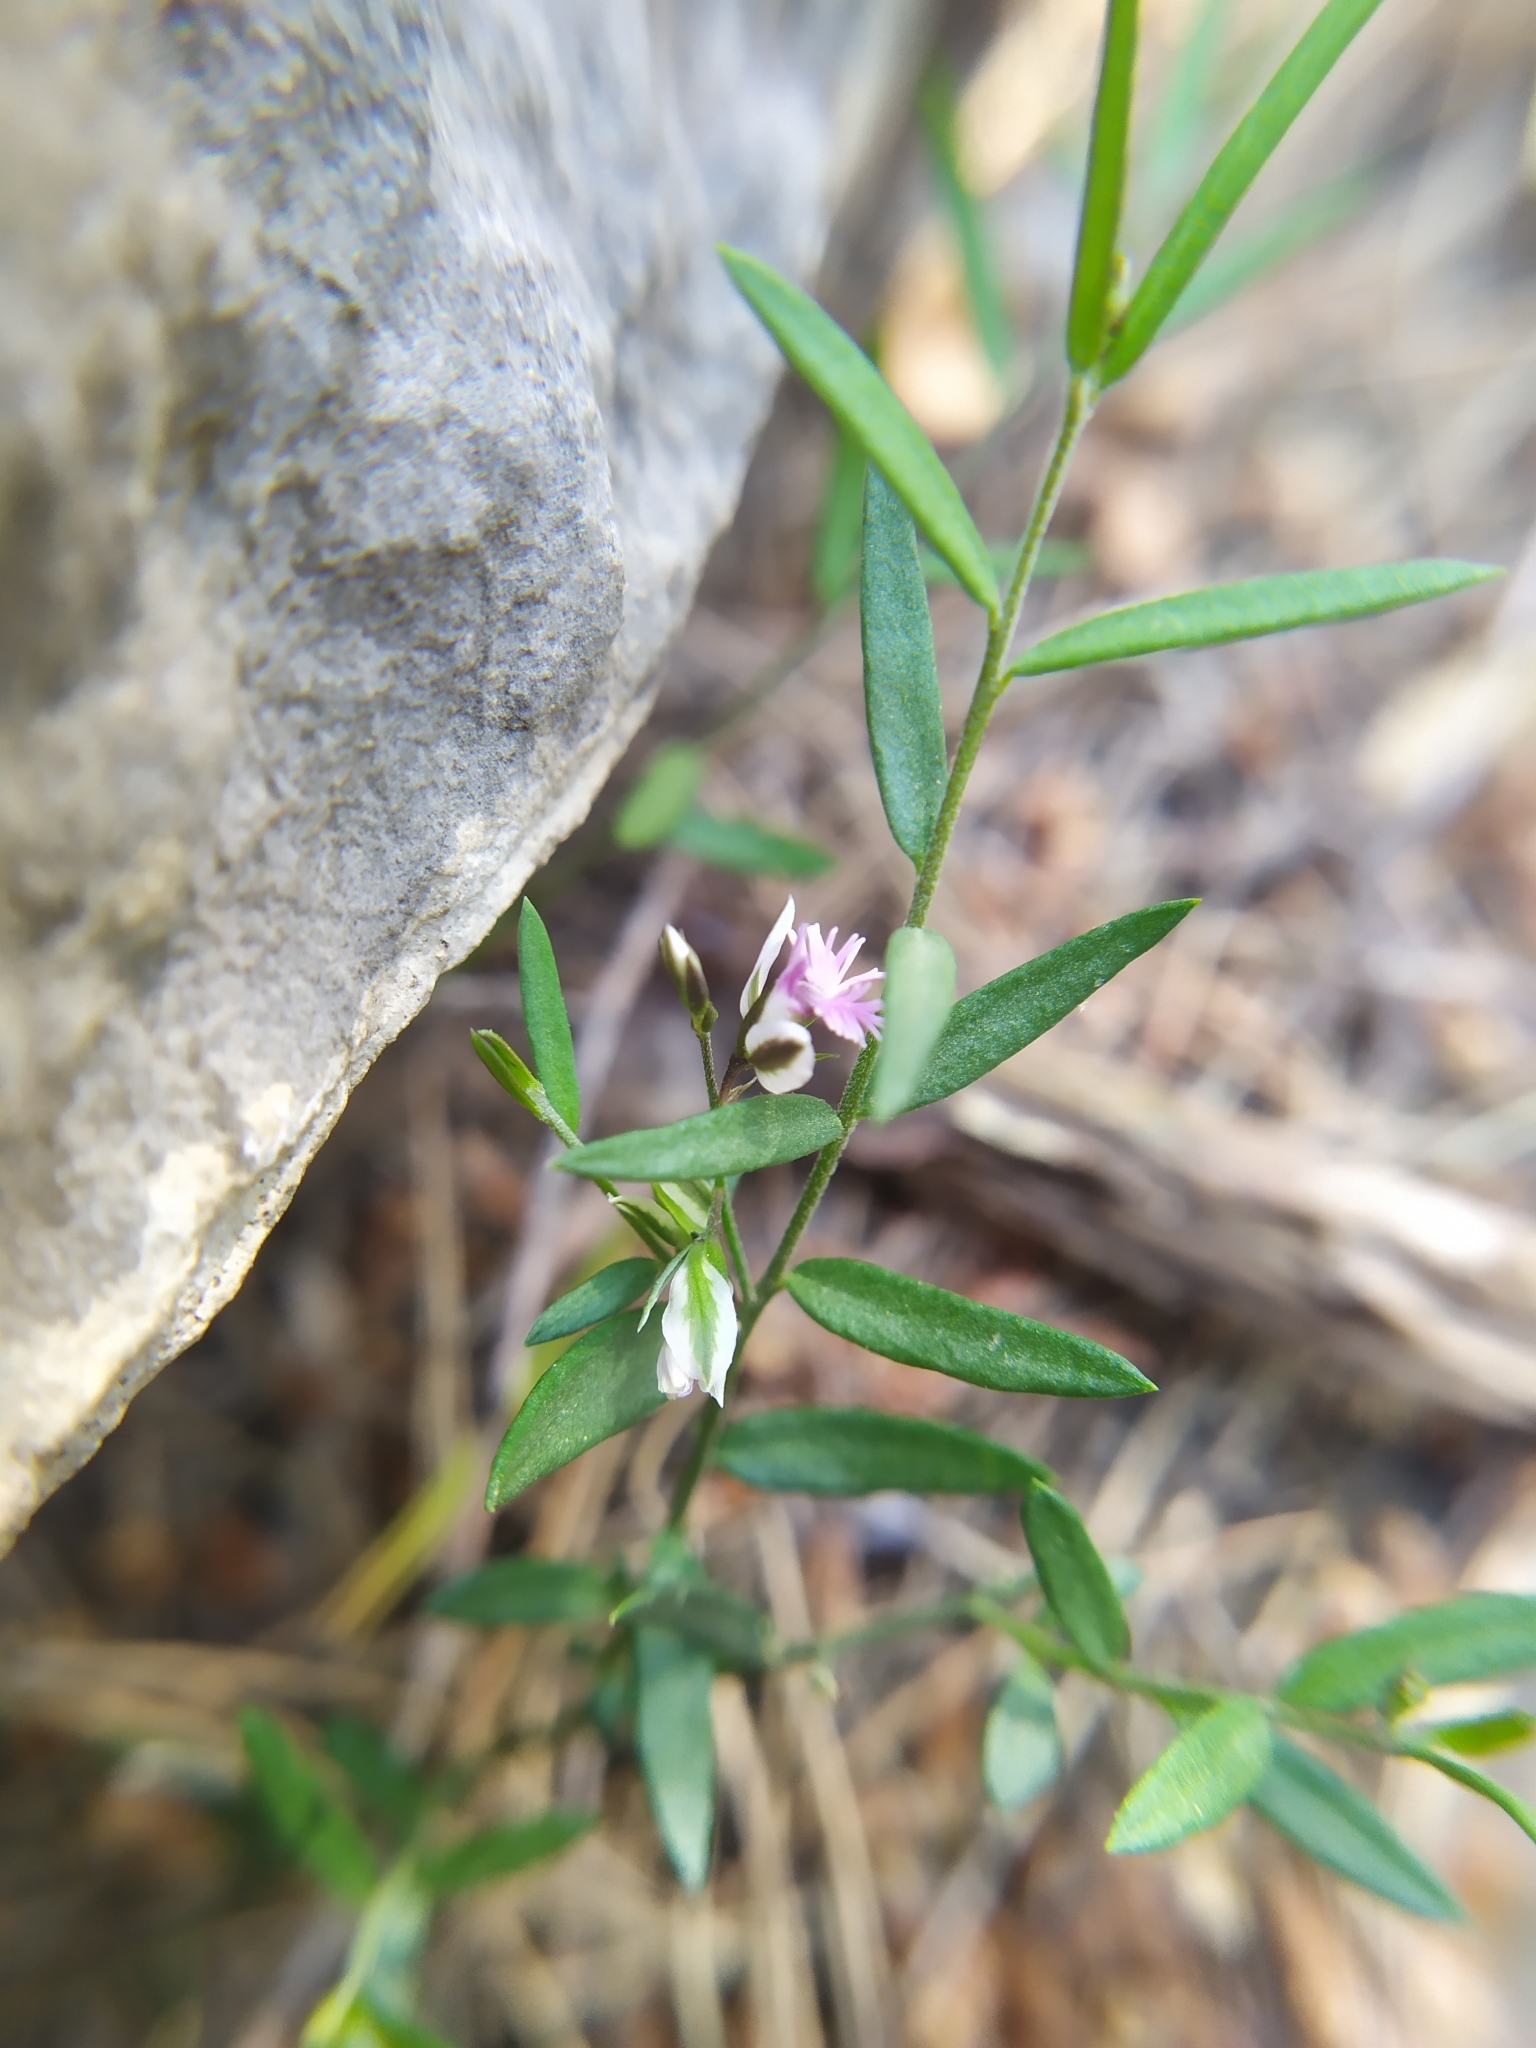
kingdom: Plantae
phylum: Tracheophyta
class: Magnoliopsida
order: Fabales
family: Polygalaceae
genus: Polygala
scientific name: Polygala rupestris
